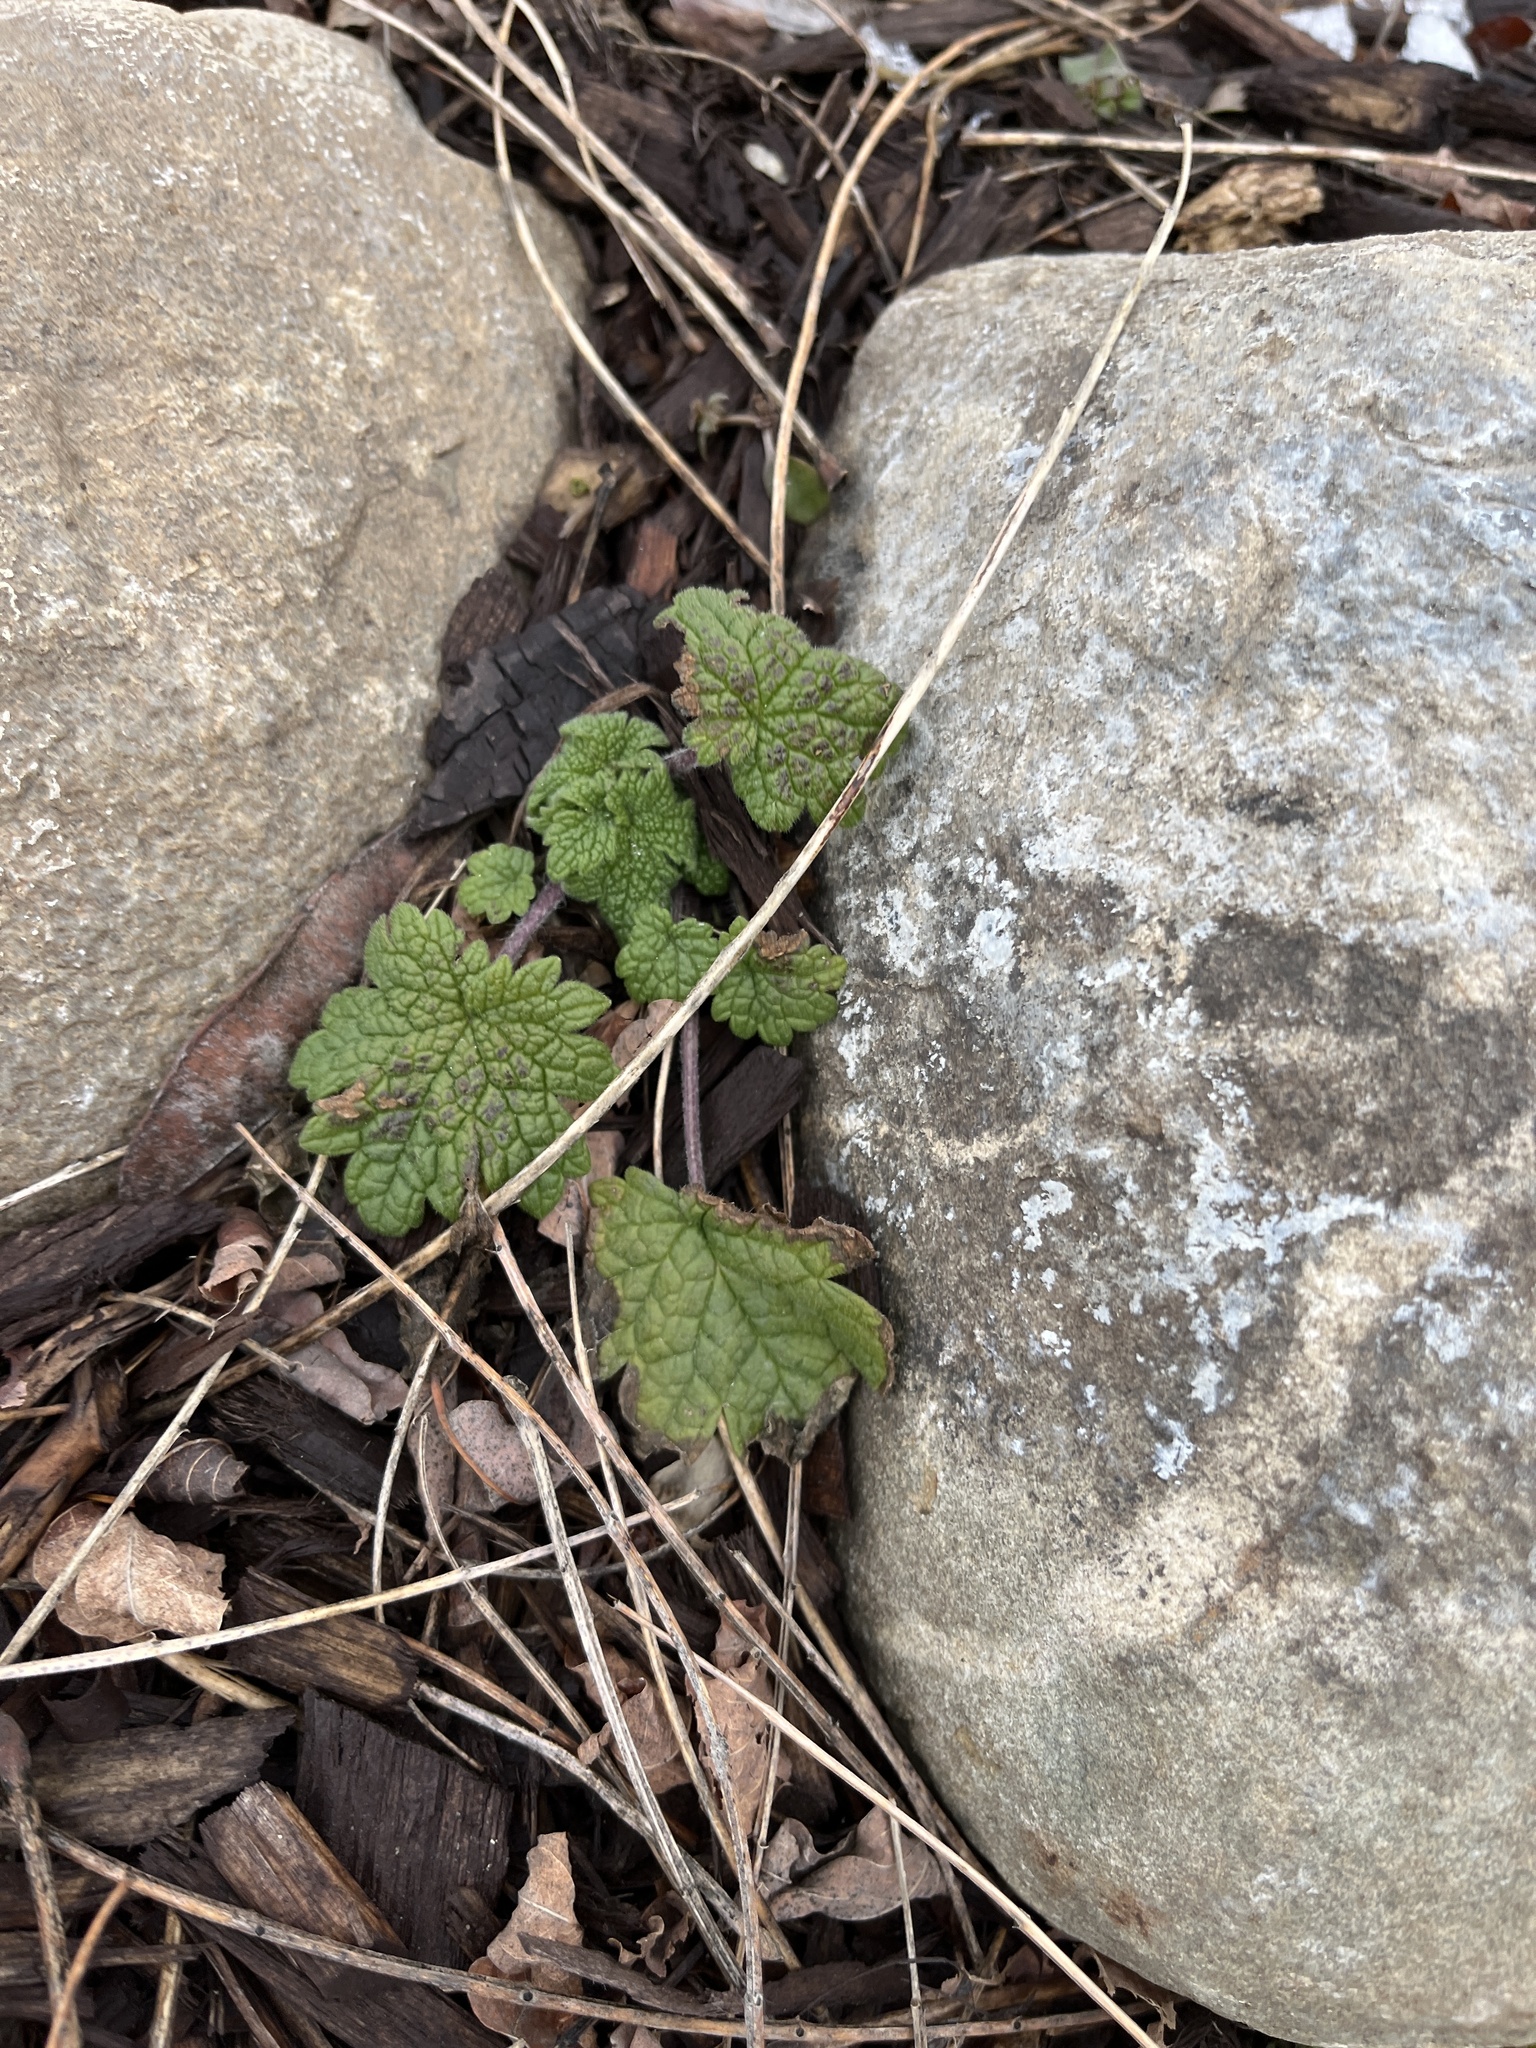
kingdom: Plantae
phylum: Tracheophyta
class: Magnoliopsida
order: Lamiales
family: Lamiaceae
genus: Leonurus
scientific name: Leonurus cardiaca
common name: Motherwort
